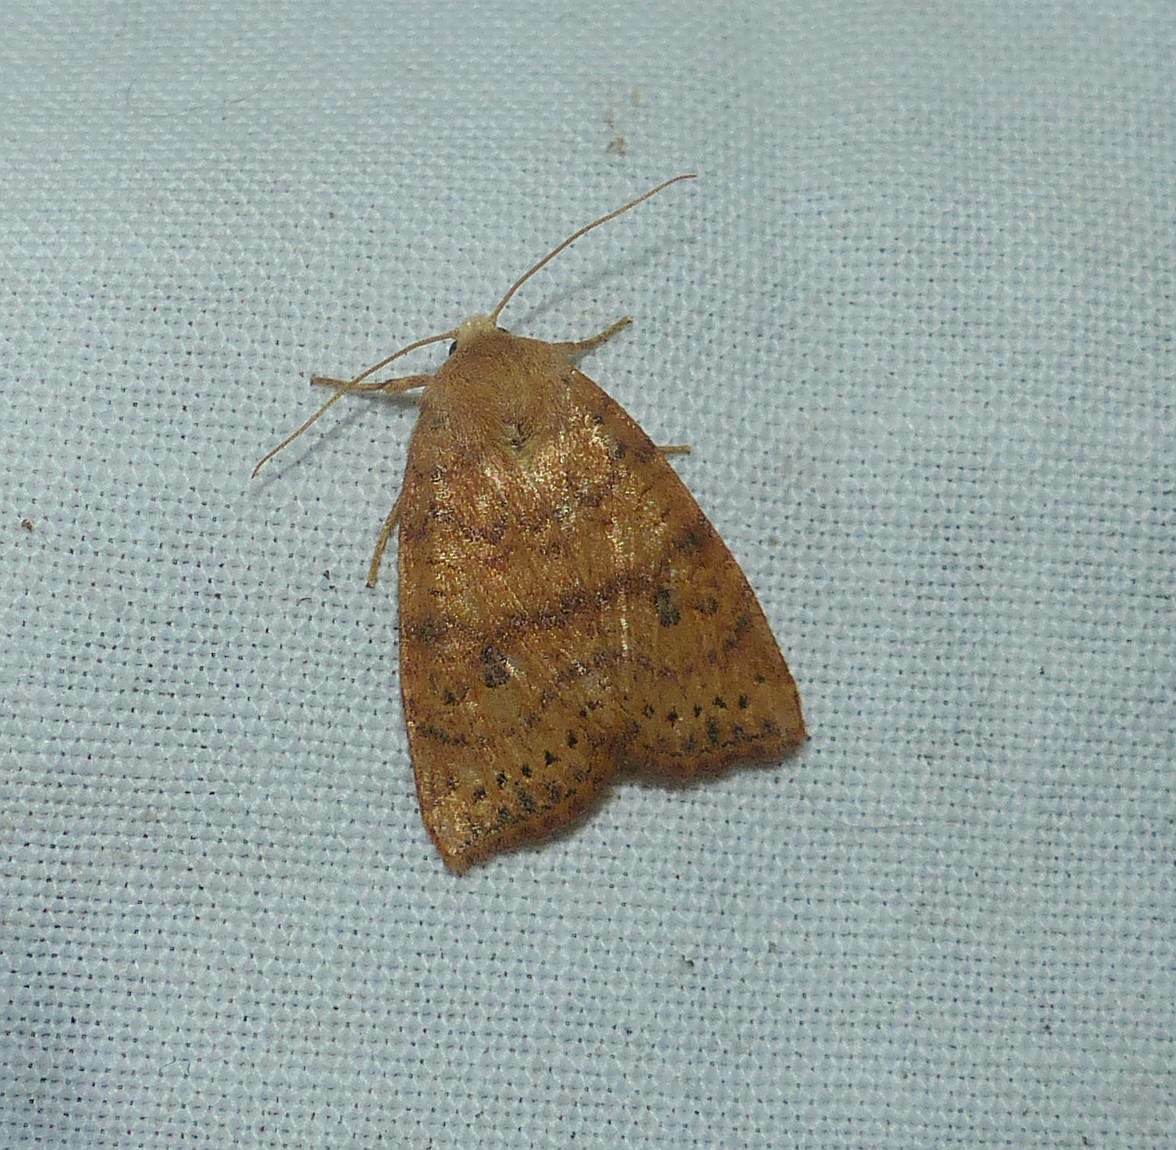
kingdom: Animalia
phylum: Arthropoda
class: Insecta
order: Lepidoptera
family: Noctuidae
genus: Anathix
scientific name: Anathix ralla
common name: Dotted sallow
